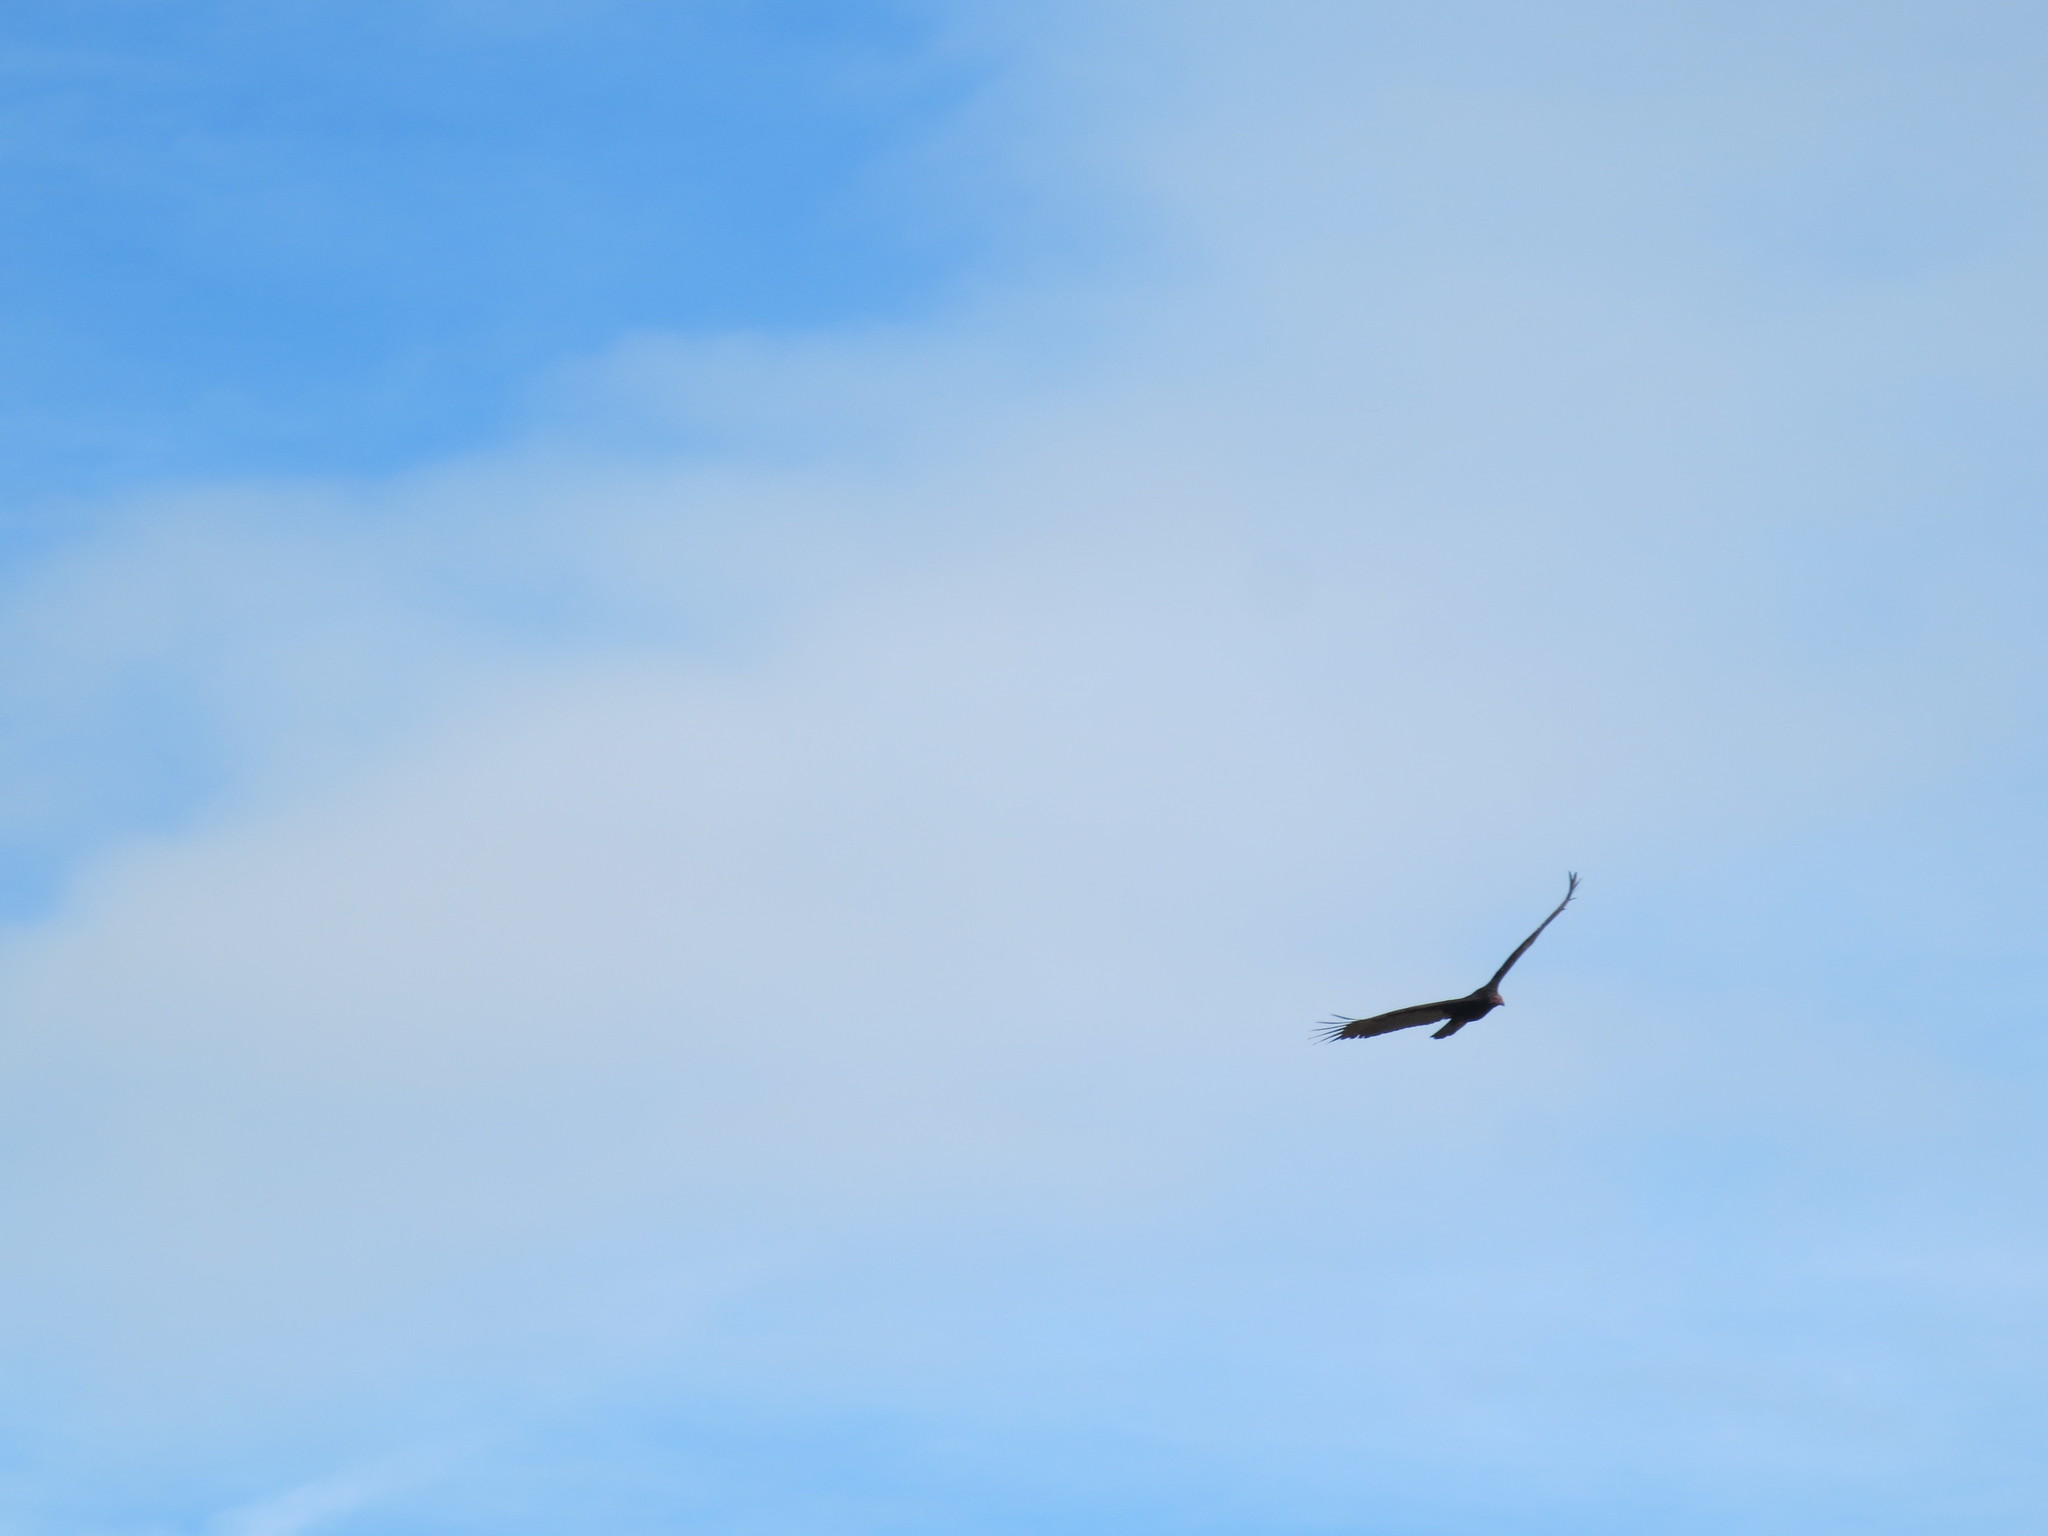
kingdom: Animalia
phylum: Chordata
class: Aves
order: Accipitriformes
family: Cathartidae
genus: Cathartes
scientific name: Cathartes aura
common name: Turkey vulture
